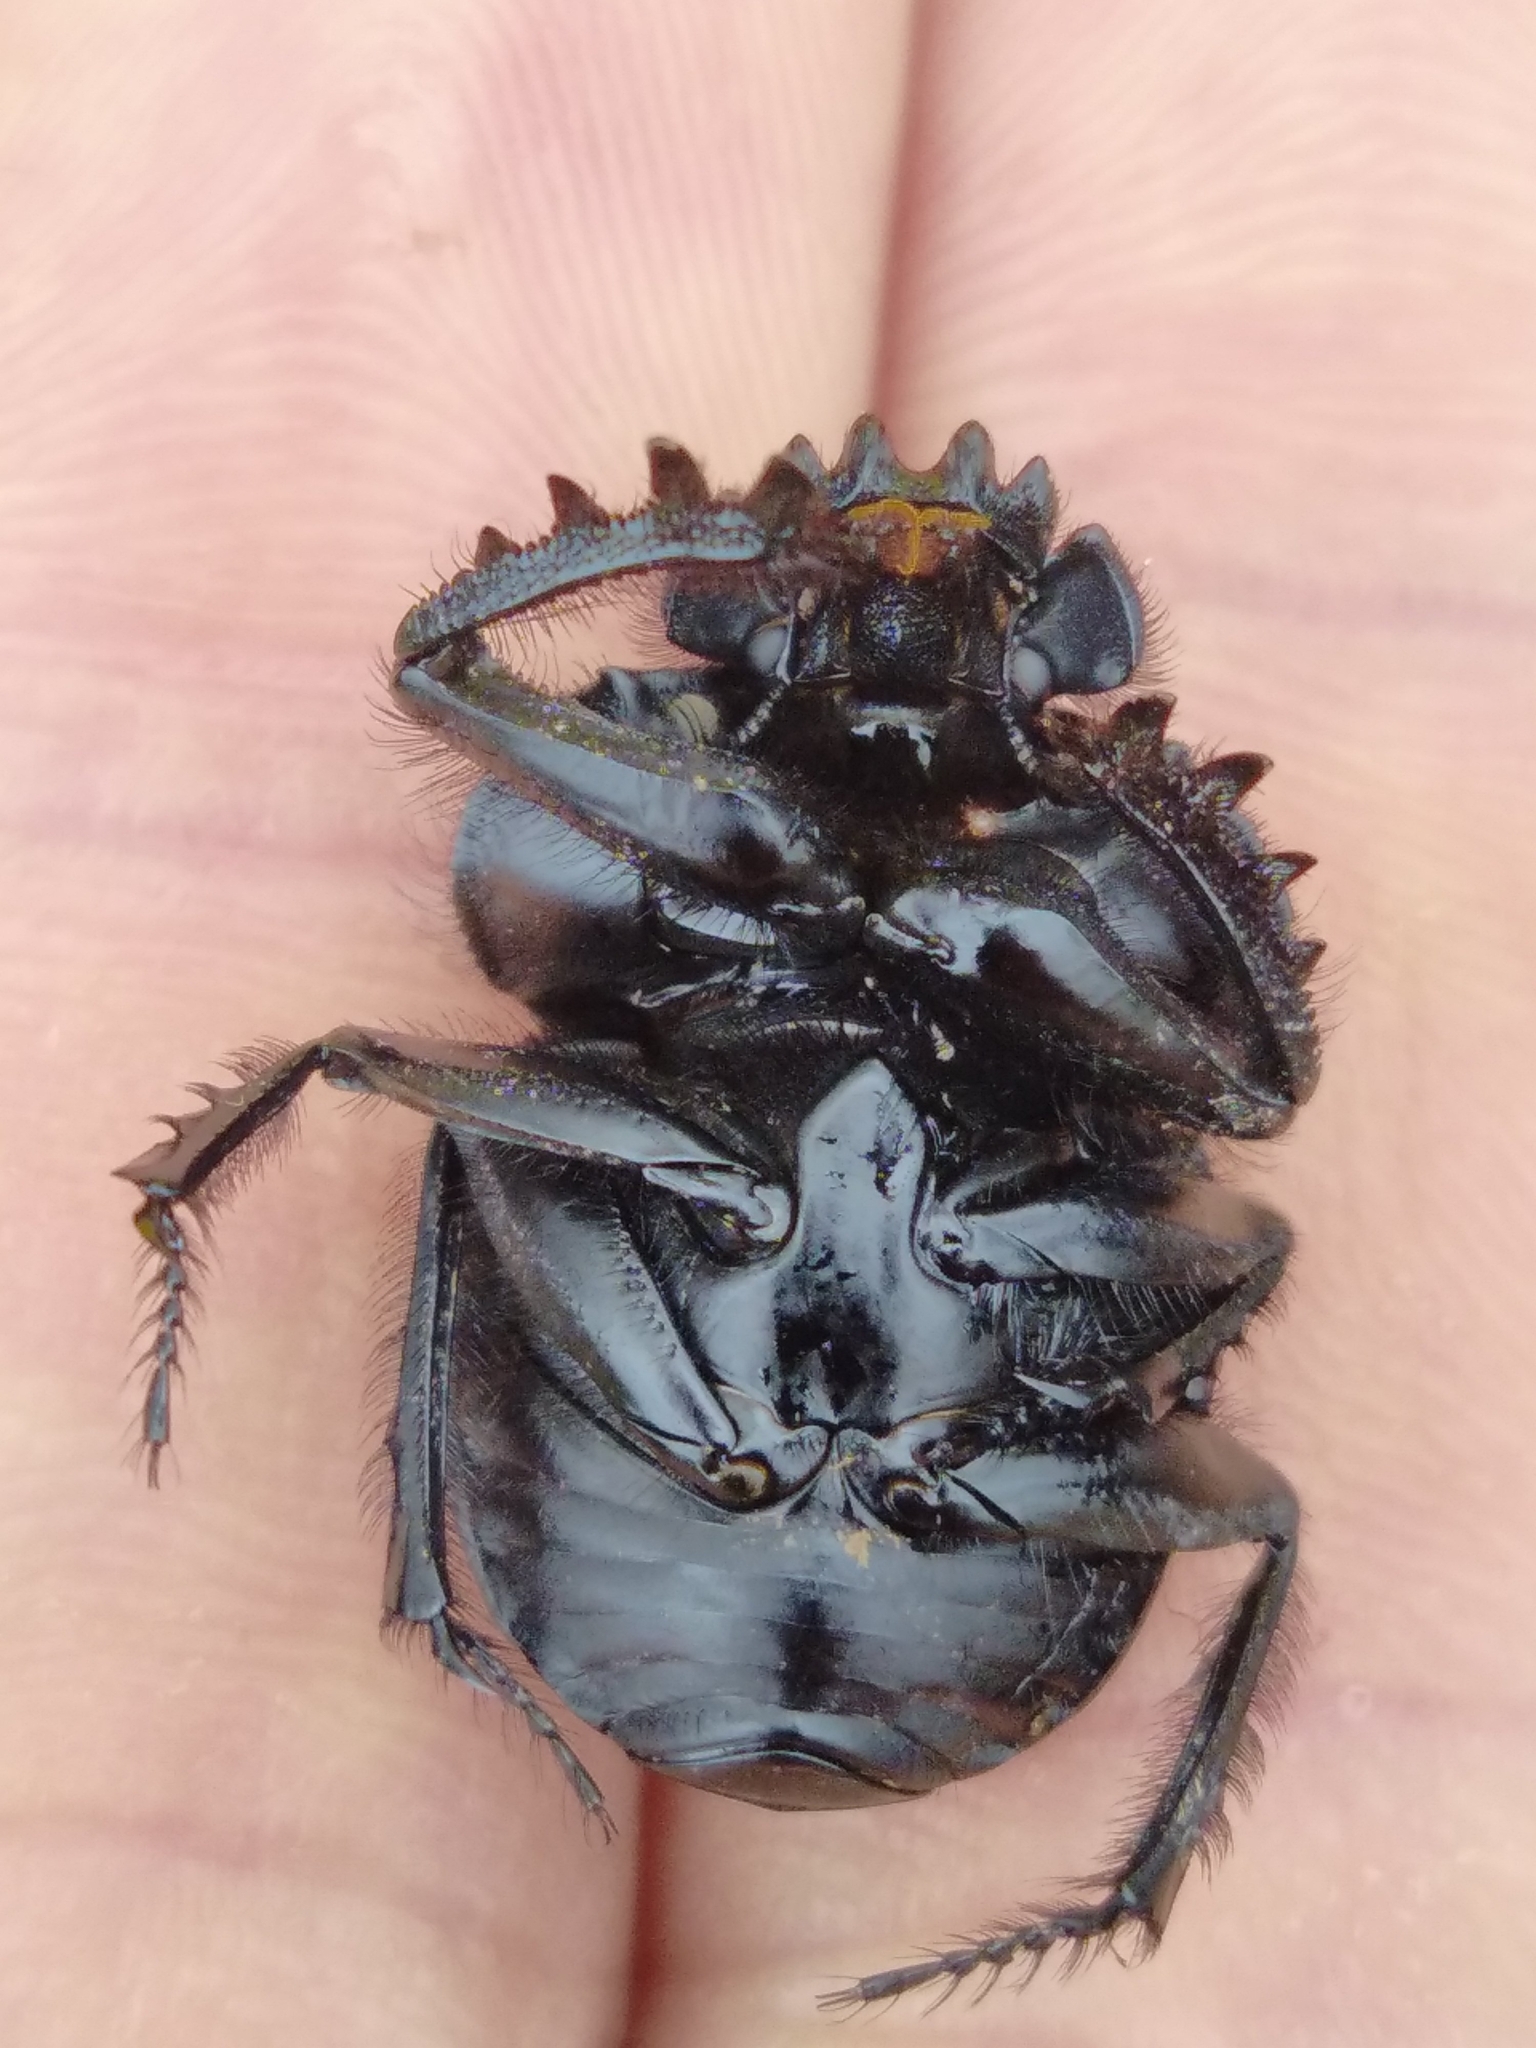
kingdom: Animalia
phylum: Arthropoda
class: Insecta
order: Coleoptera
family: Scarabaeidae
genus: Ateuchetus
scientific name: Ateuchetus laticollis
